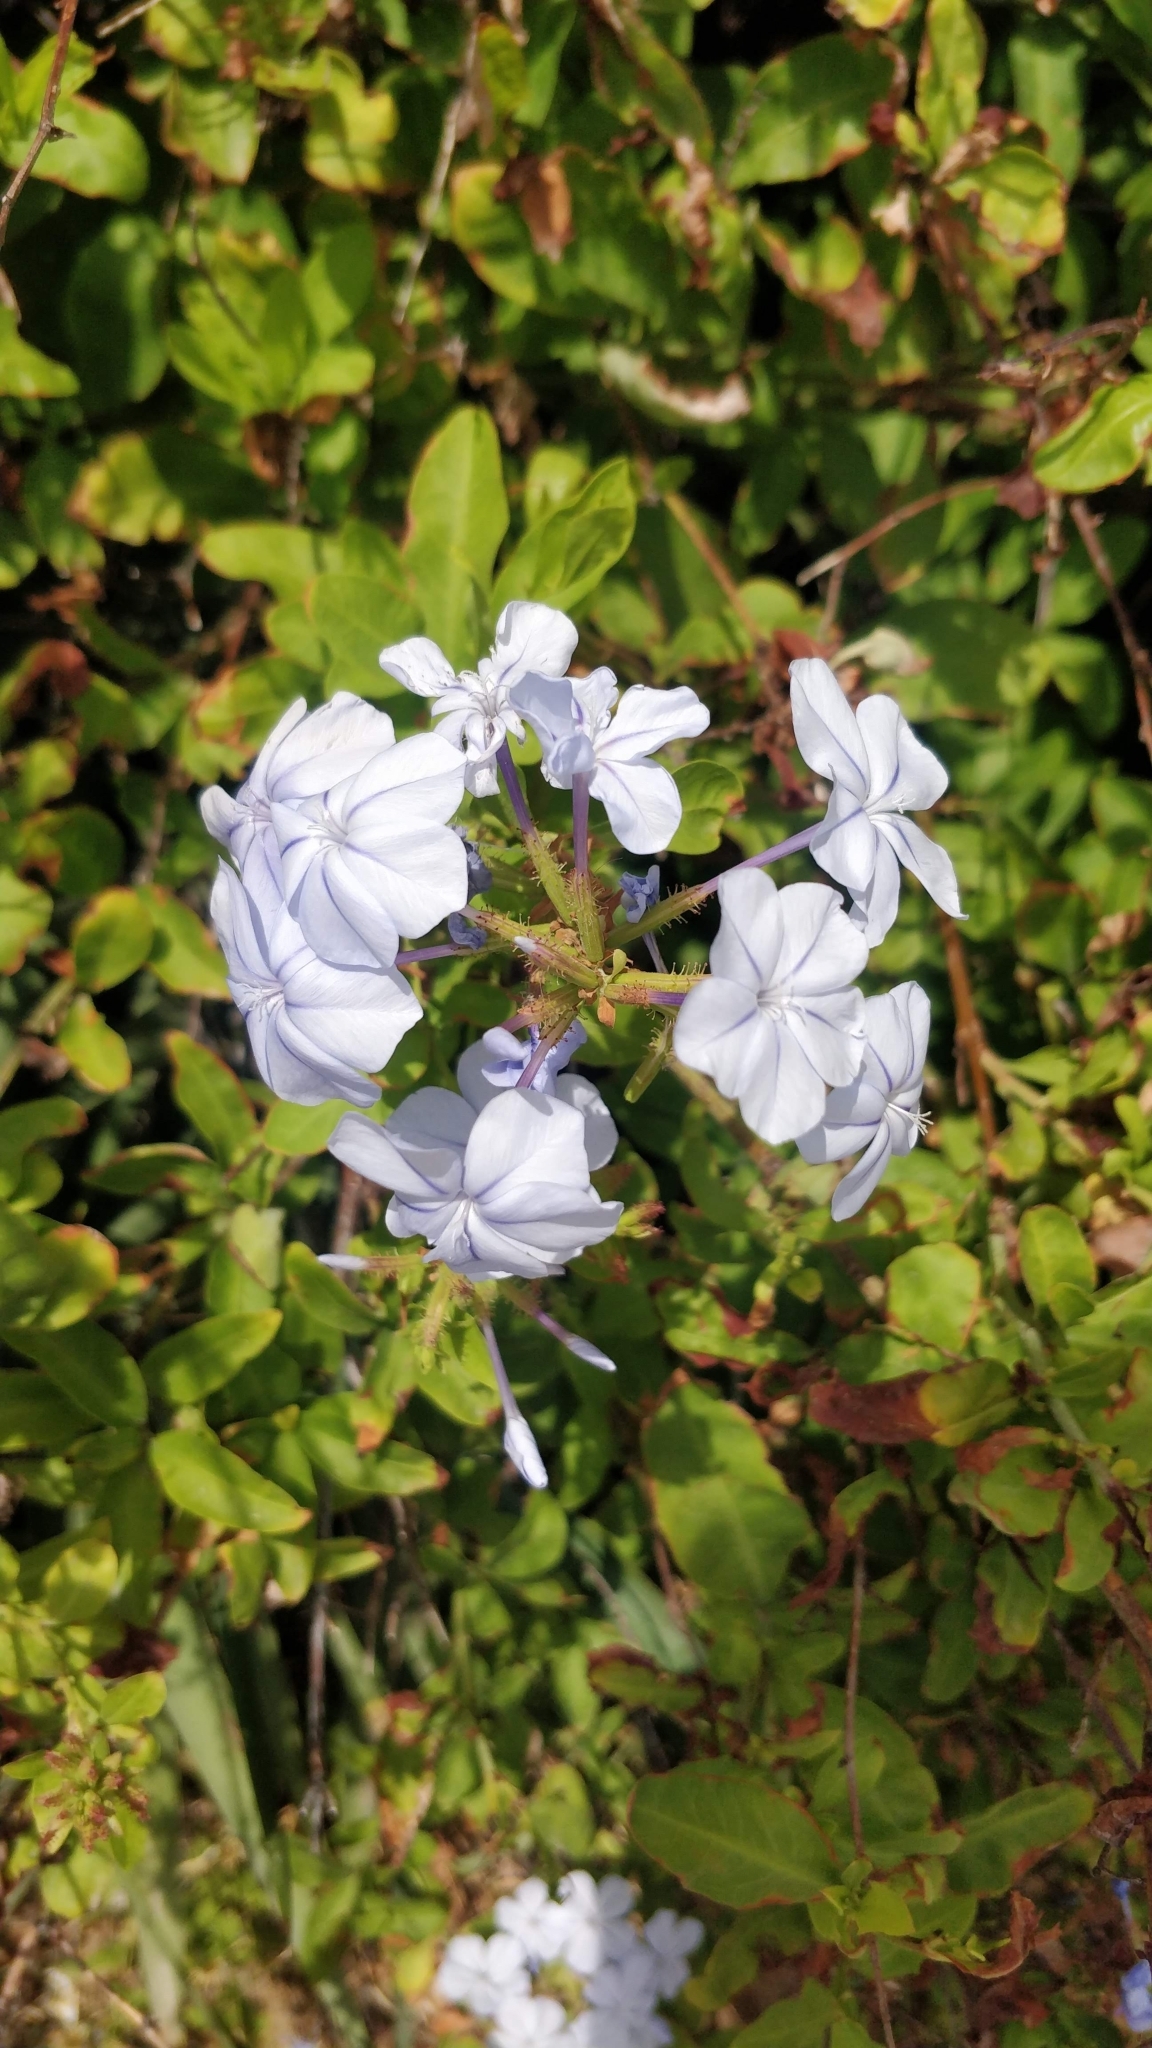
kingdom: Plantae
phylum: Tracheophyta
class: Magnoliopsida
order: Caryophyllales
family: Plumbaginaceae
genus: Plumbago
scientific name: Plumbago auriculata
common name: Cape leadwort
